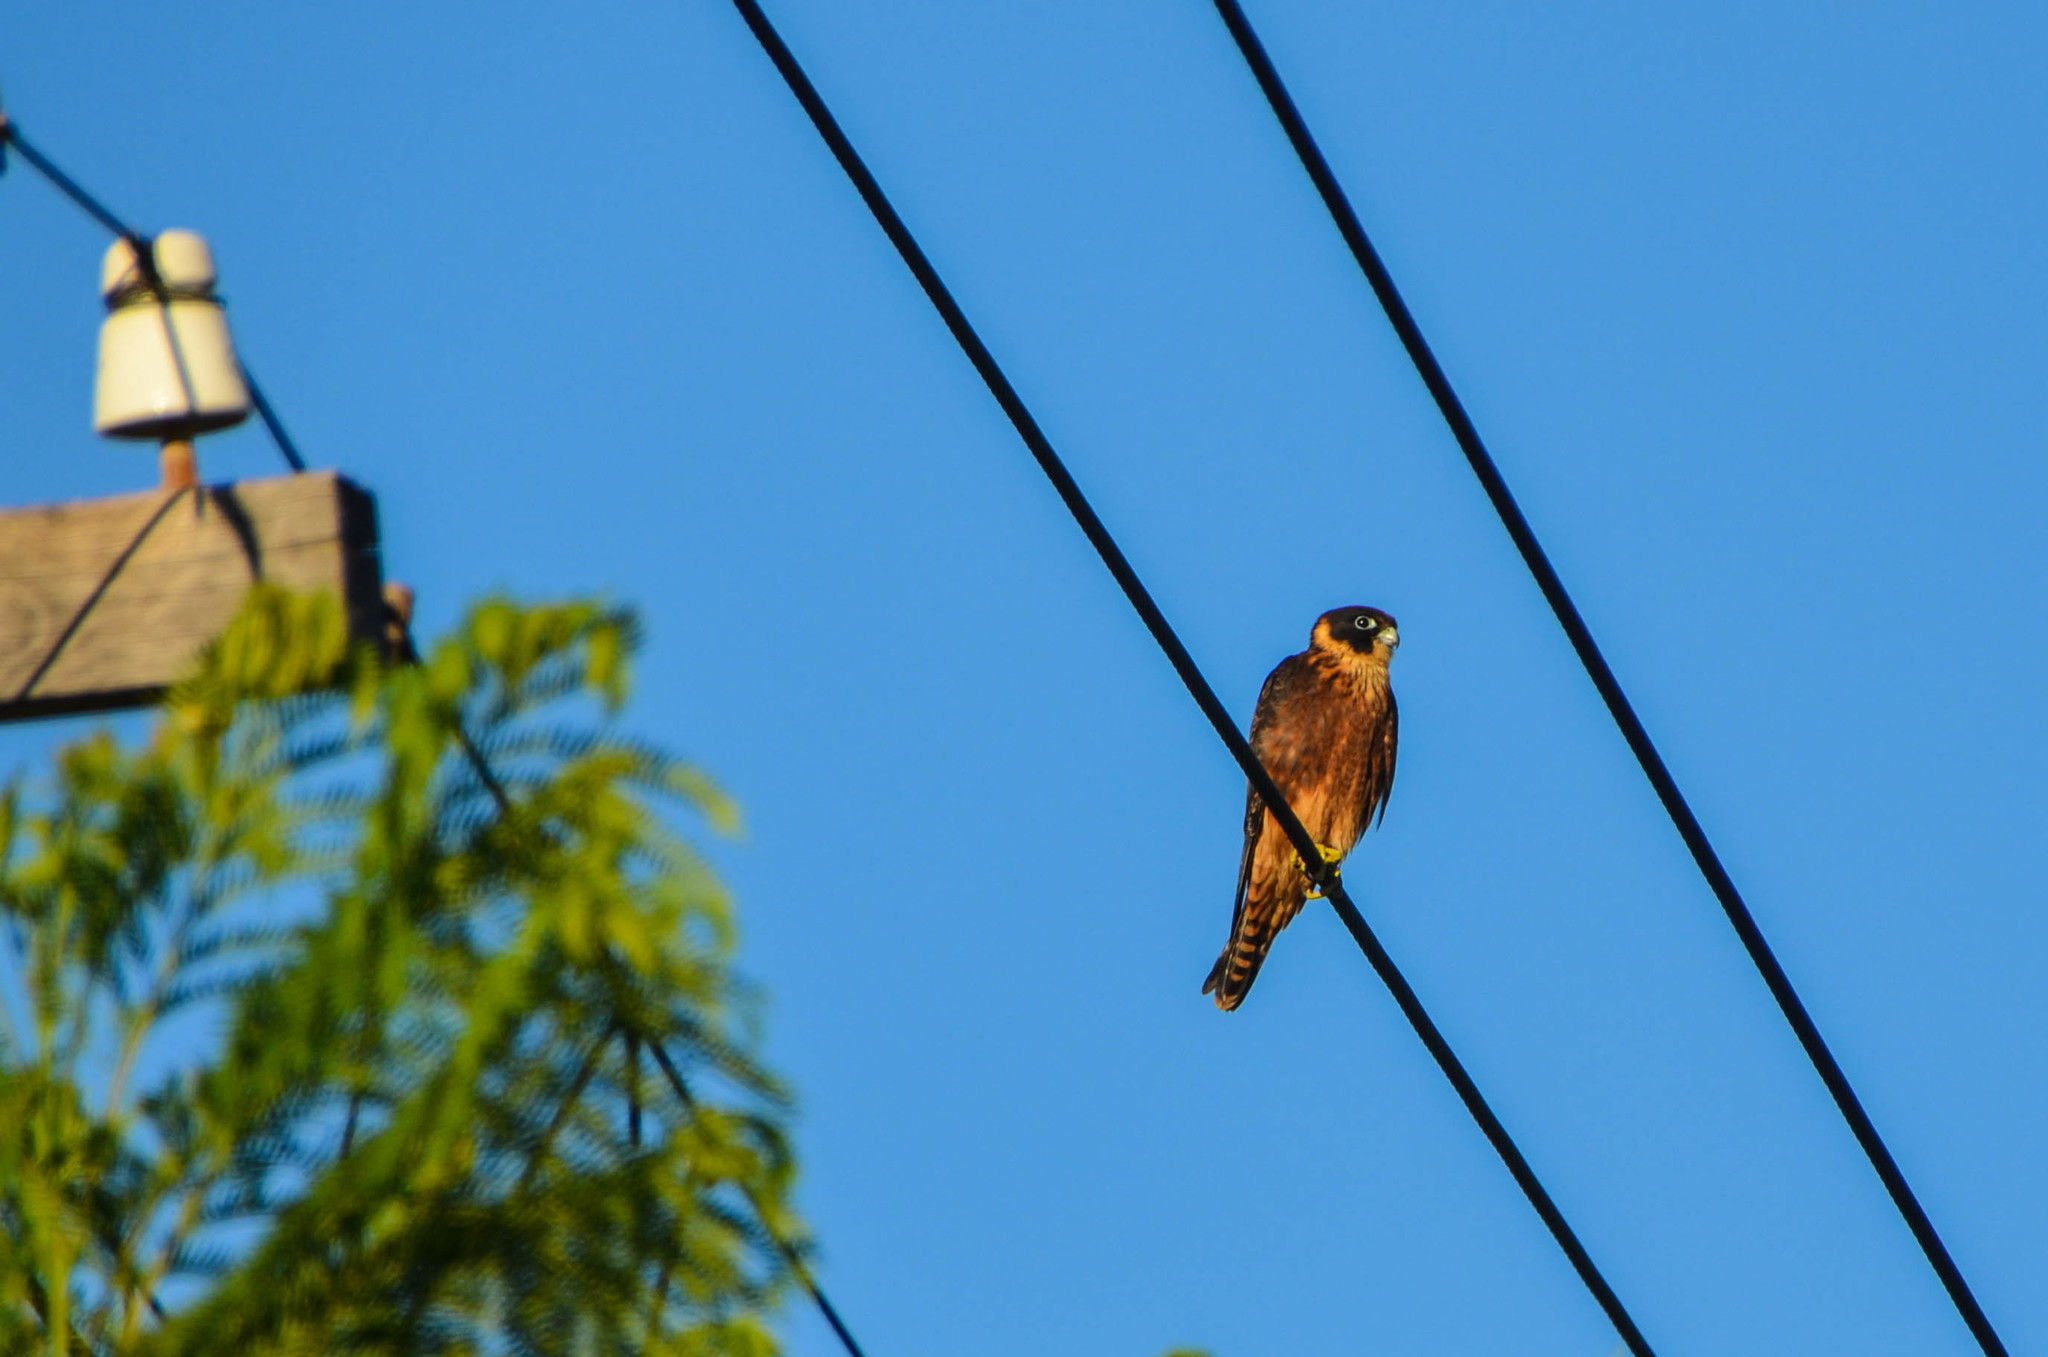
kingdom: Animalia
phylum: Chordata
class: Aves
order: Falconiformes
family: Falconidae
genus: Falco
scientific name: Falco longipennis
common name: Australian hobby
